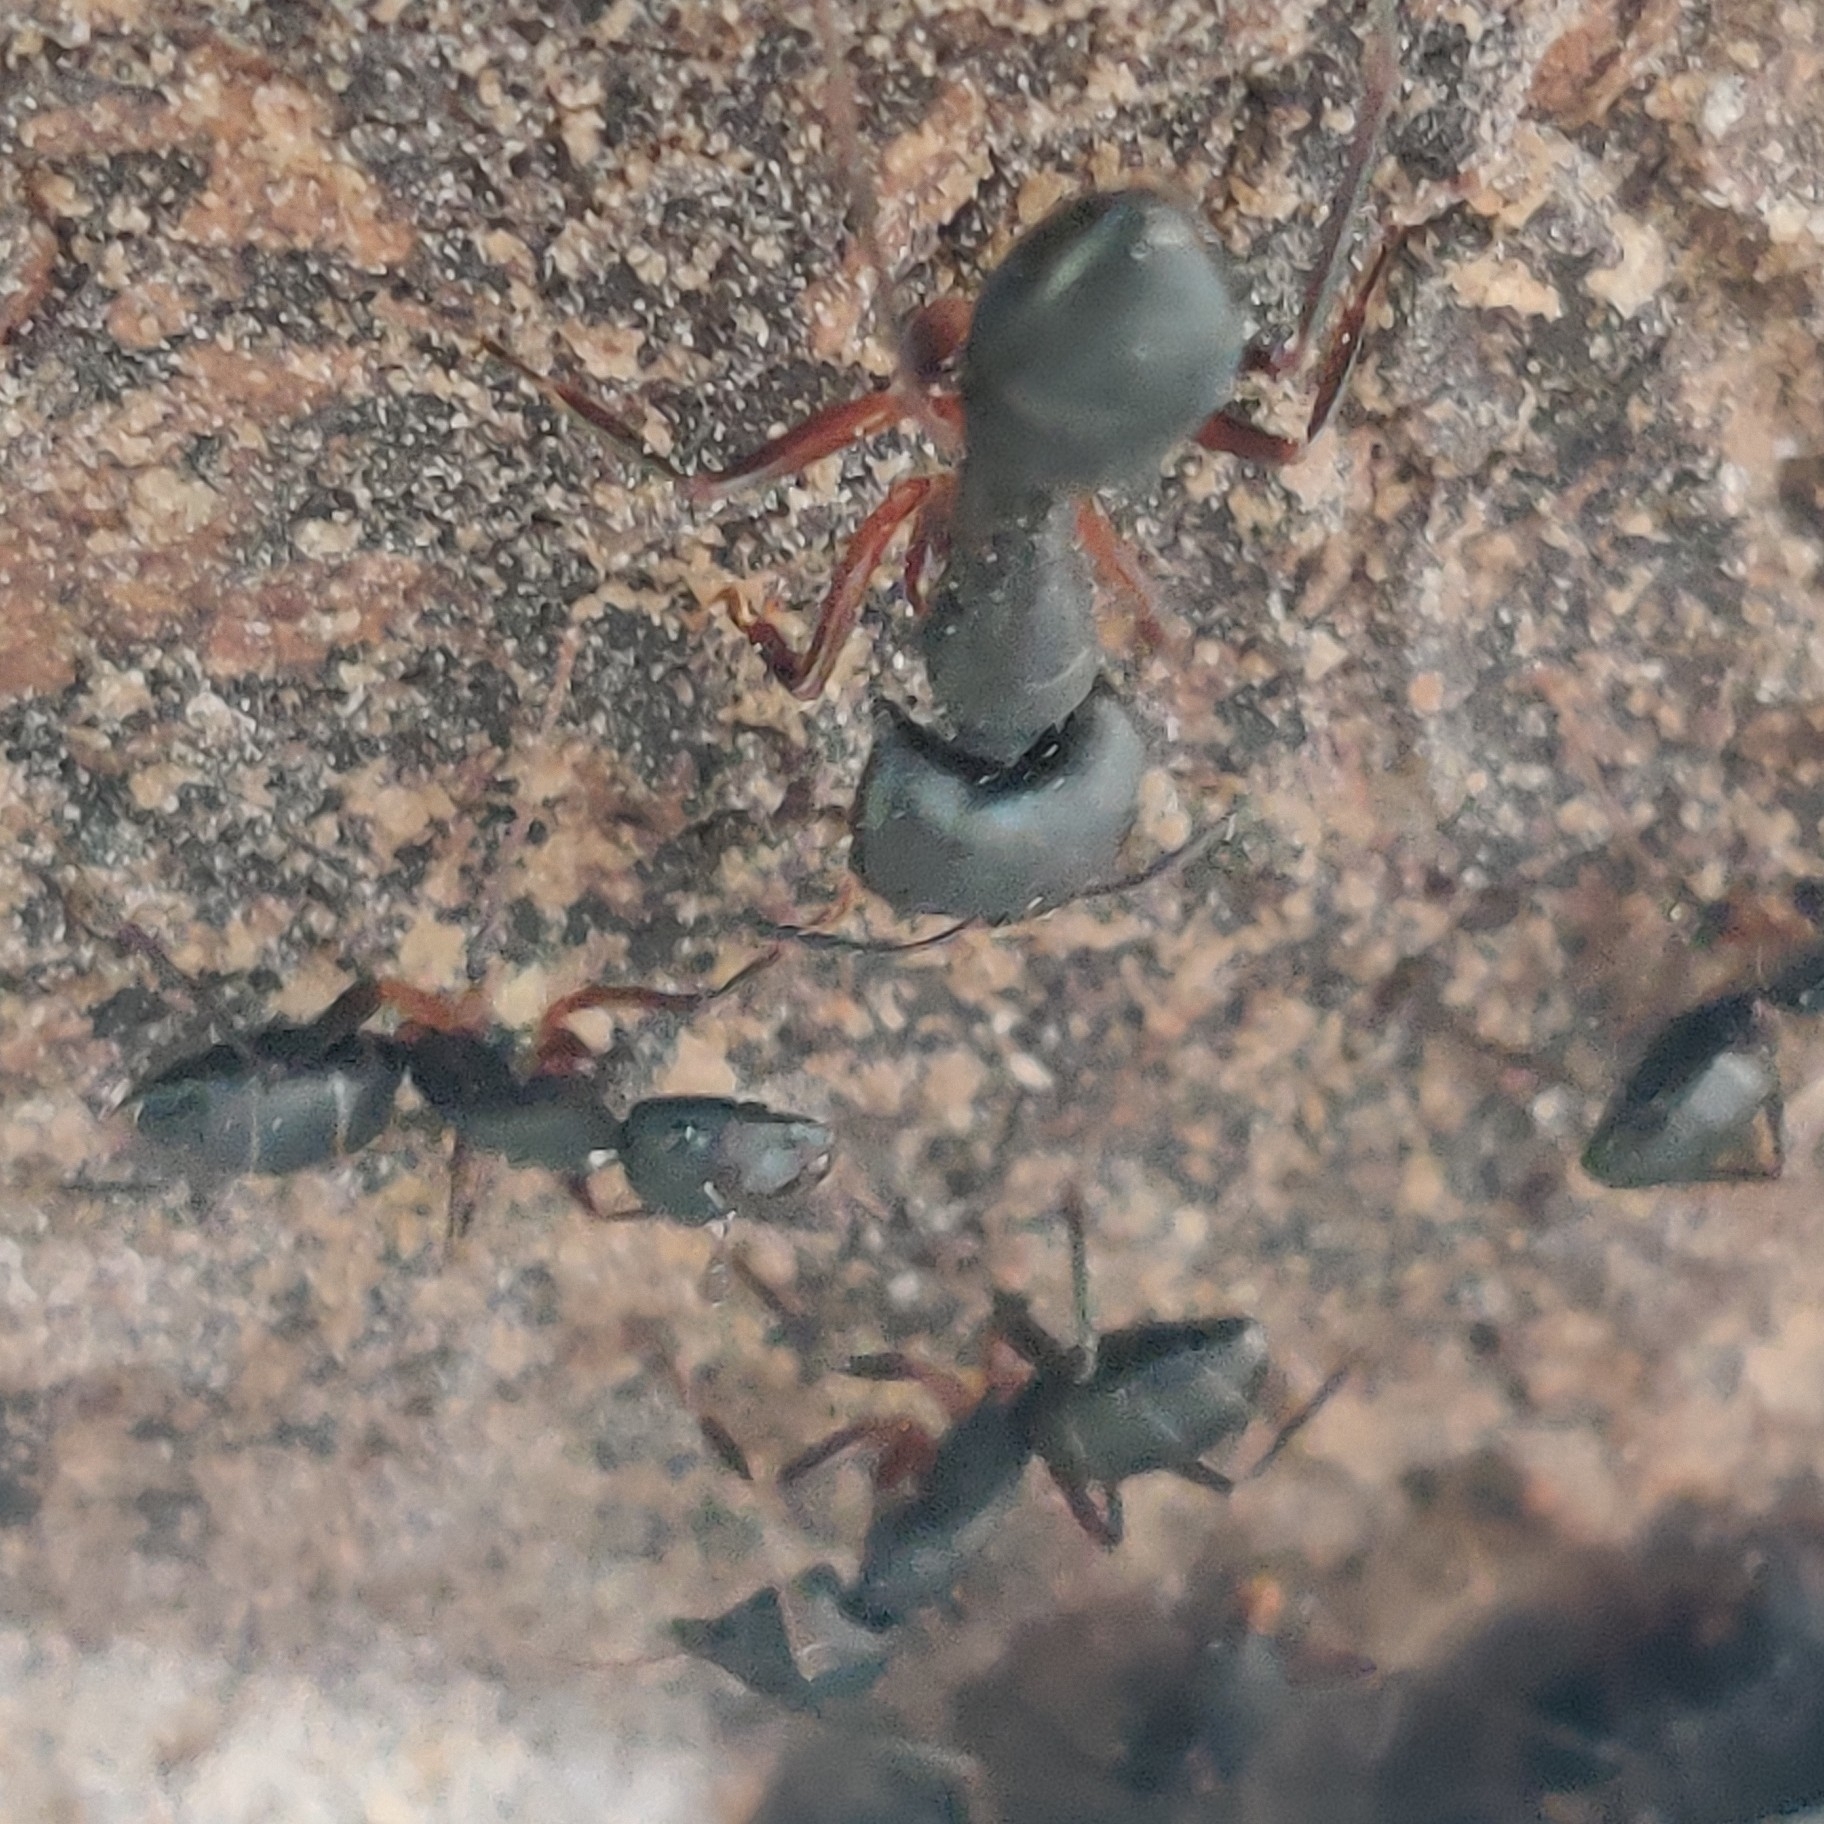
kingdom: Animalia
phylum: Arthropoda
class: Insecta
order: Hymenoptera
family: Formicidae
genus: Camponotus
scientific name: Camponotus compressus
